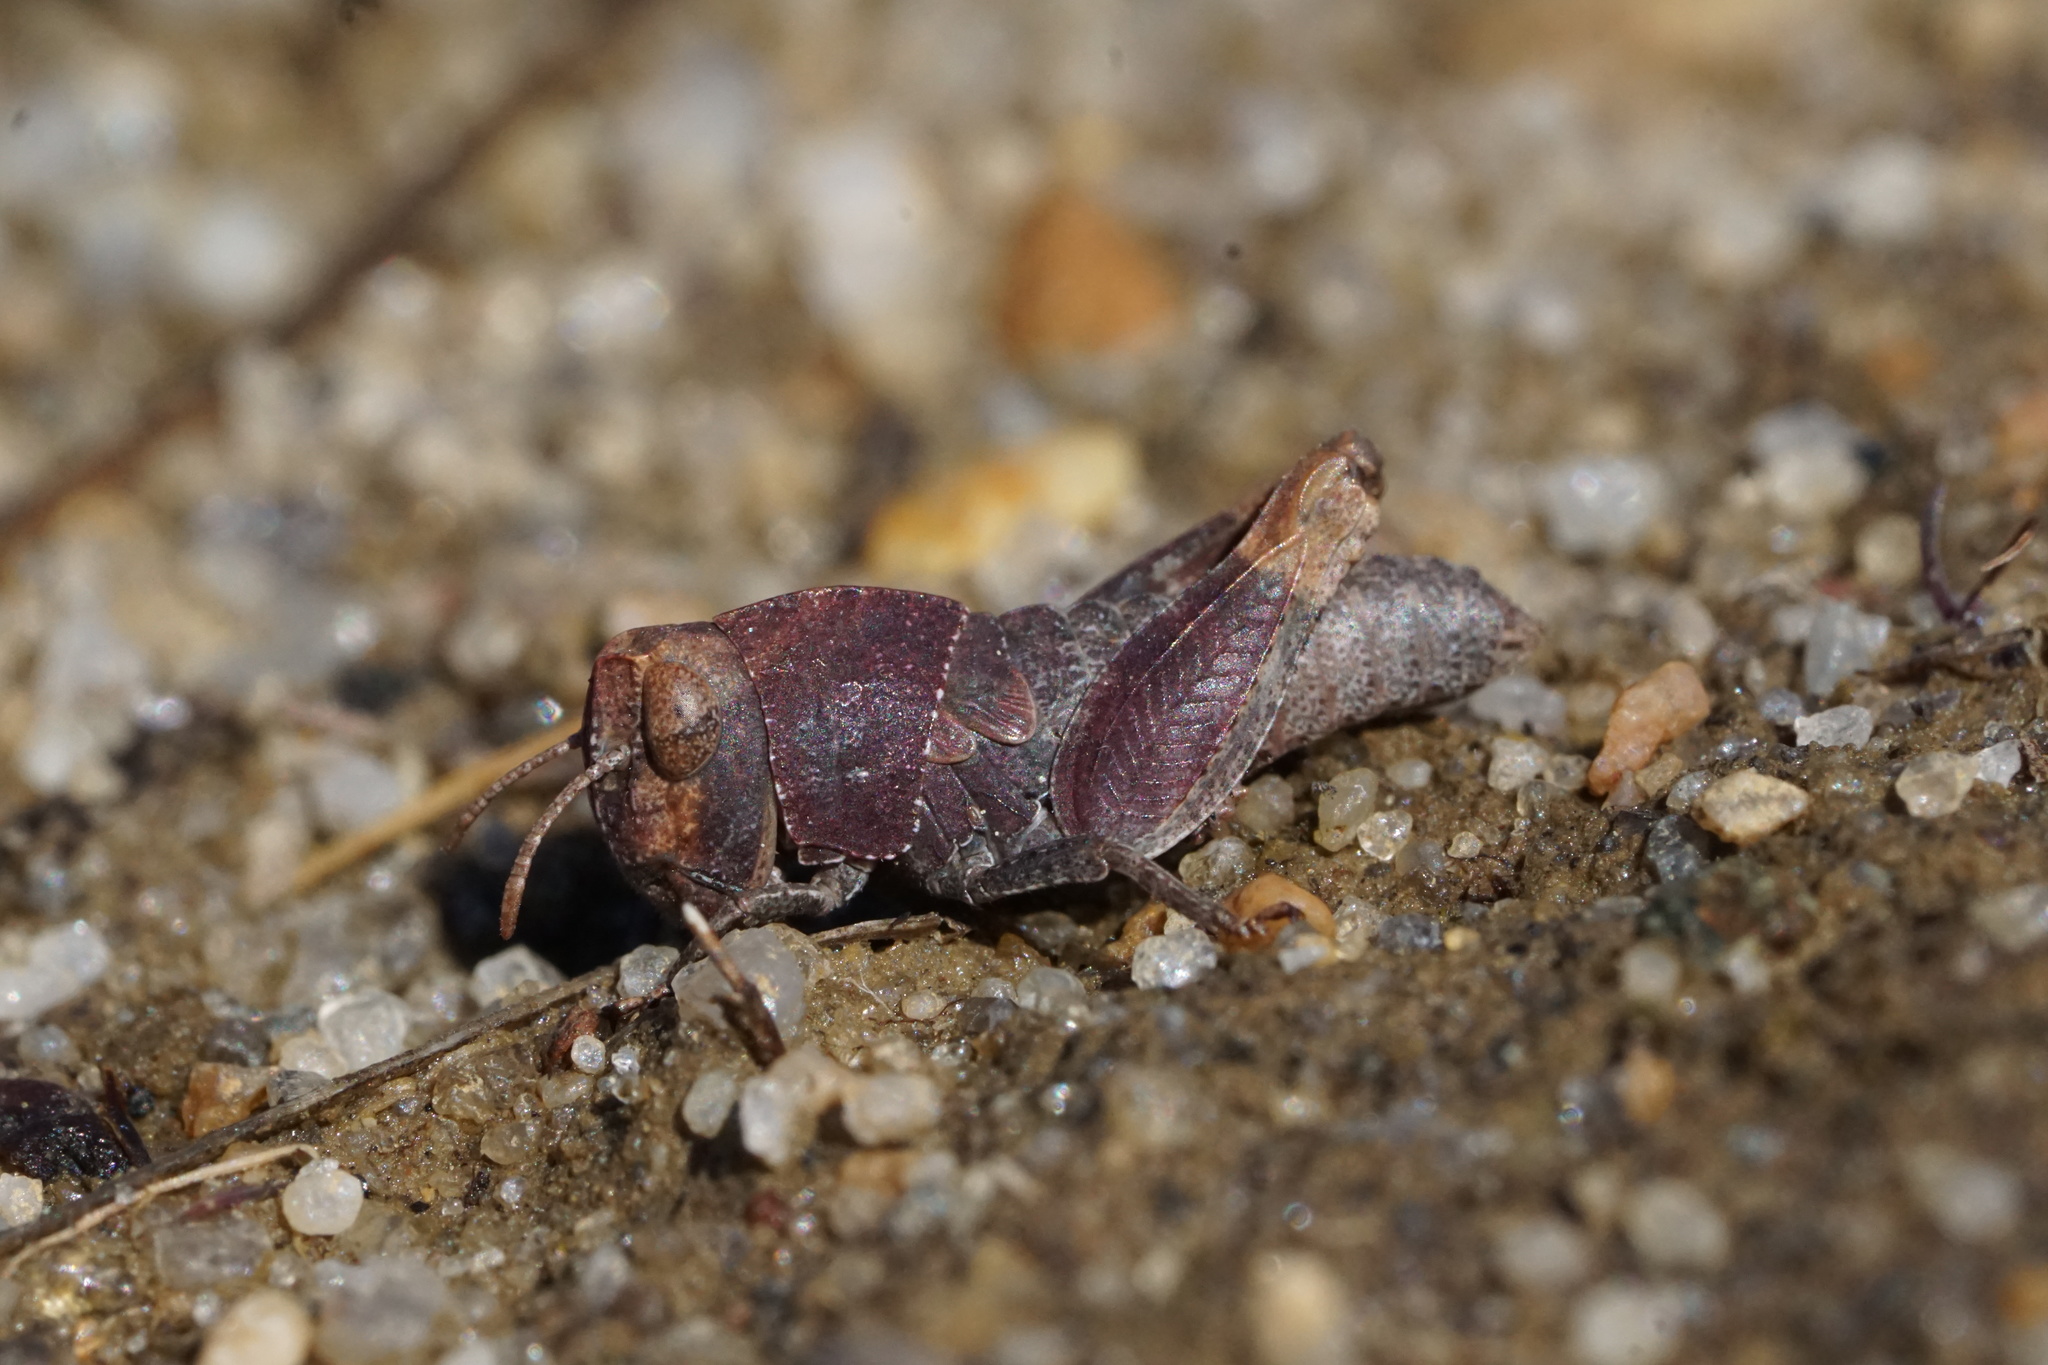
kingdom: Animalia
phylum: Arthropoda
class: Insecta
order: Orthoptera
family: Acrididae
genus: Arphia
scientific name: Arphia sulphurea
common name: Spring yellow-winged locust
